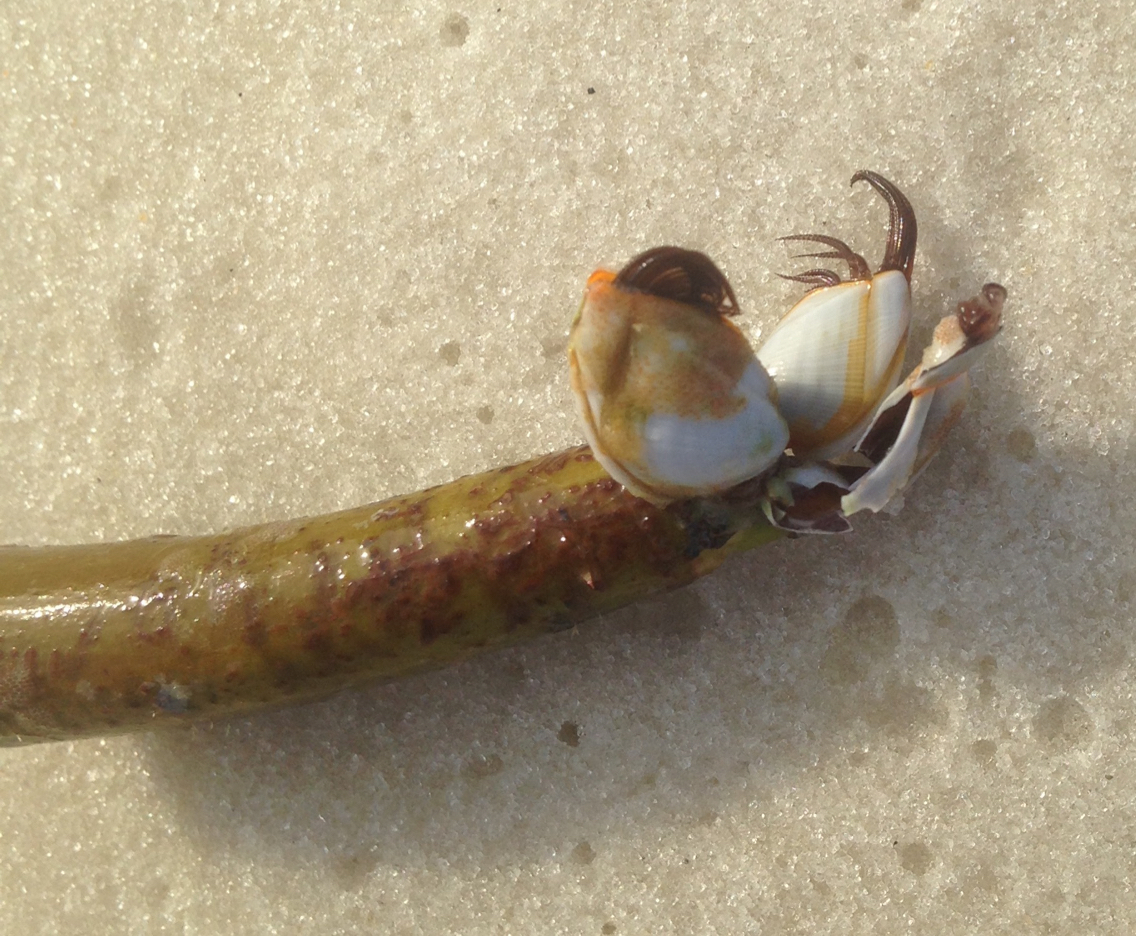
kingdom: Animalia
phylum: Arthropoda
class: Maxillopoda
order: Pedunculata
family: Lepadidae
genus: Lepas
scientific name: Lepas anserifera
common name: Goose barnacle
